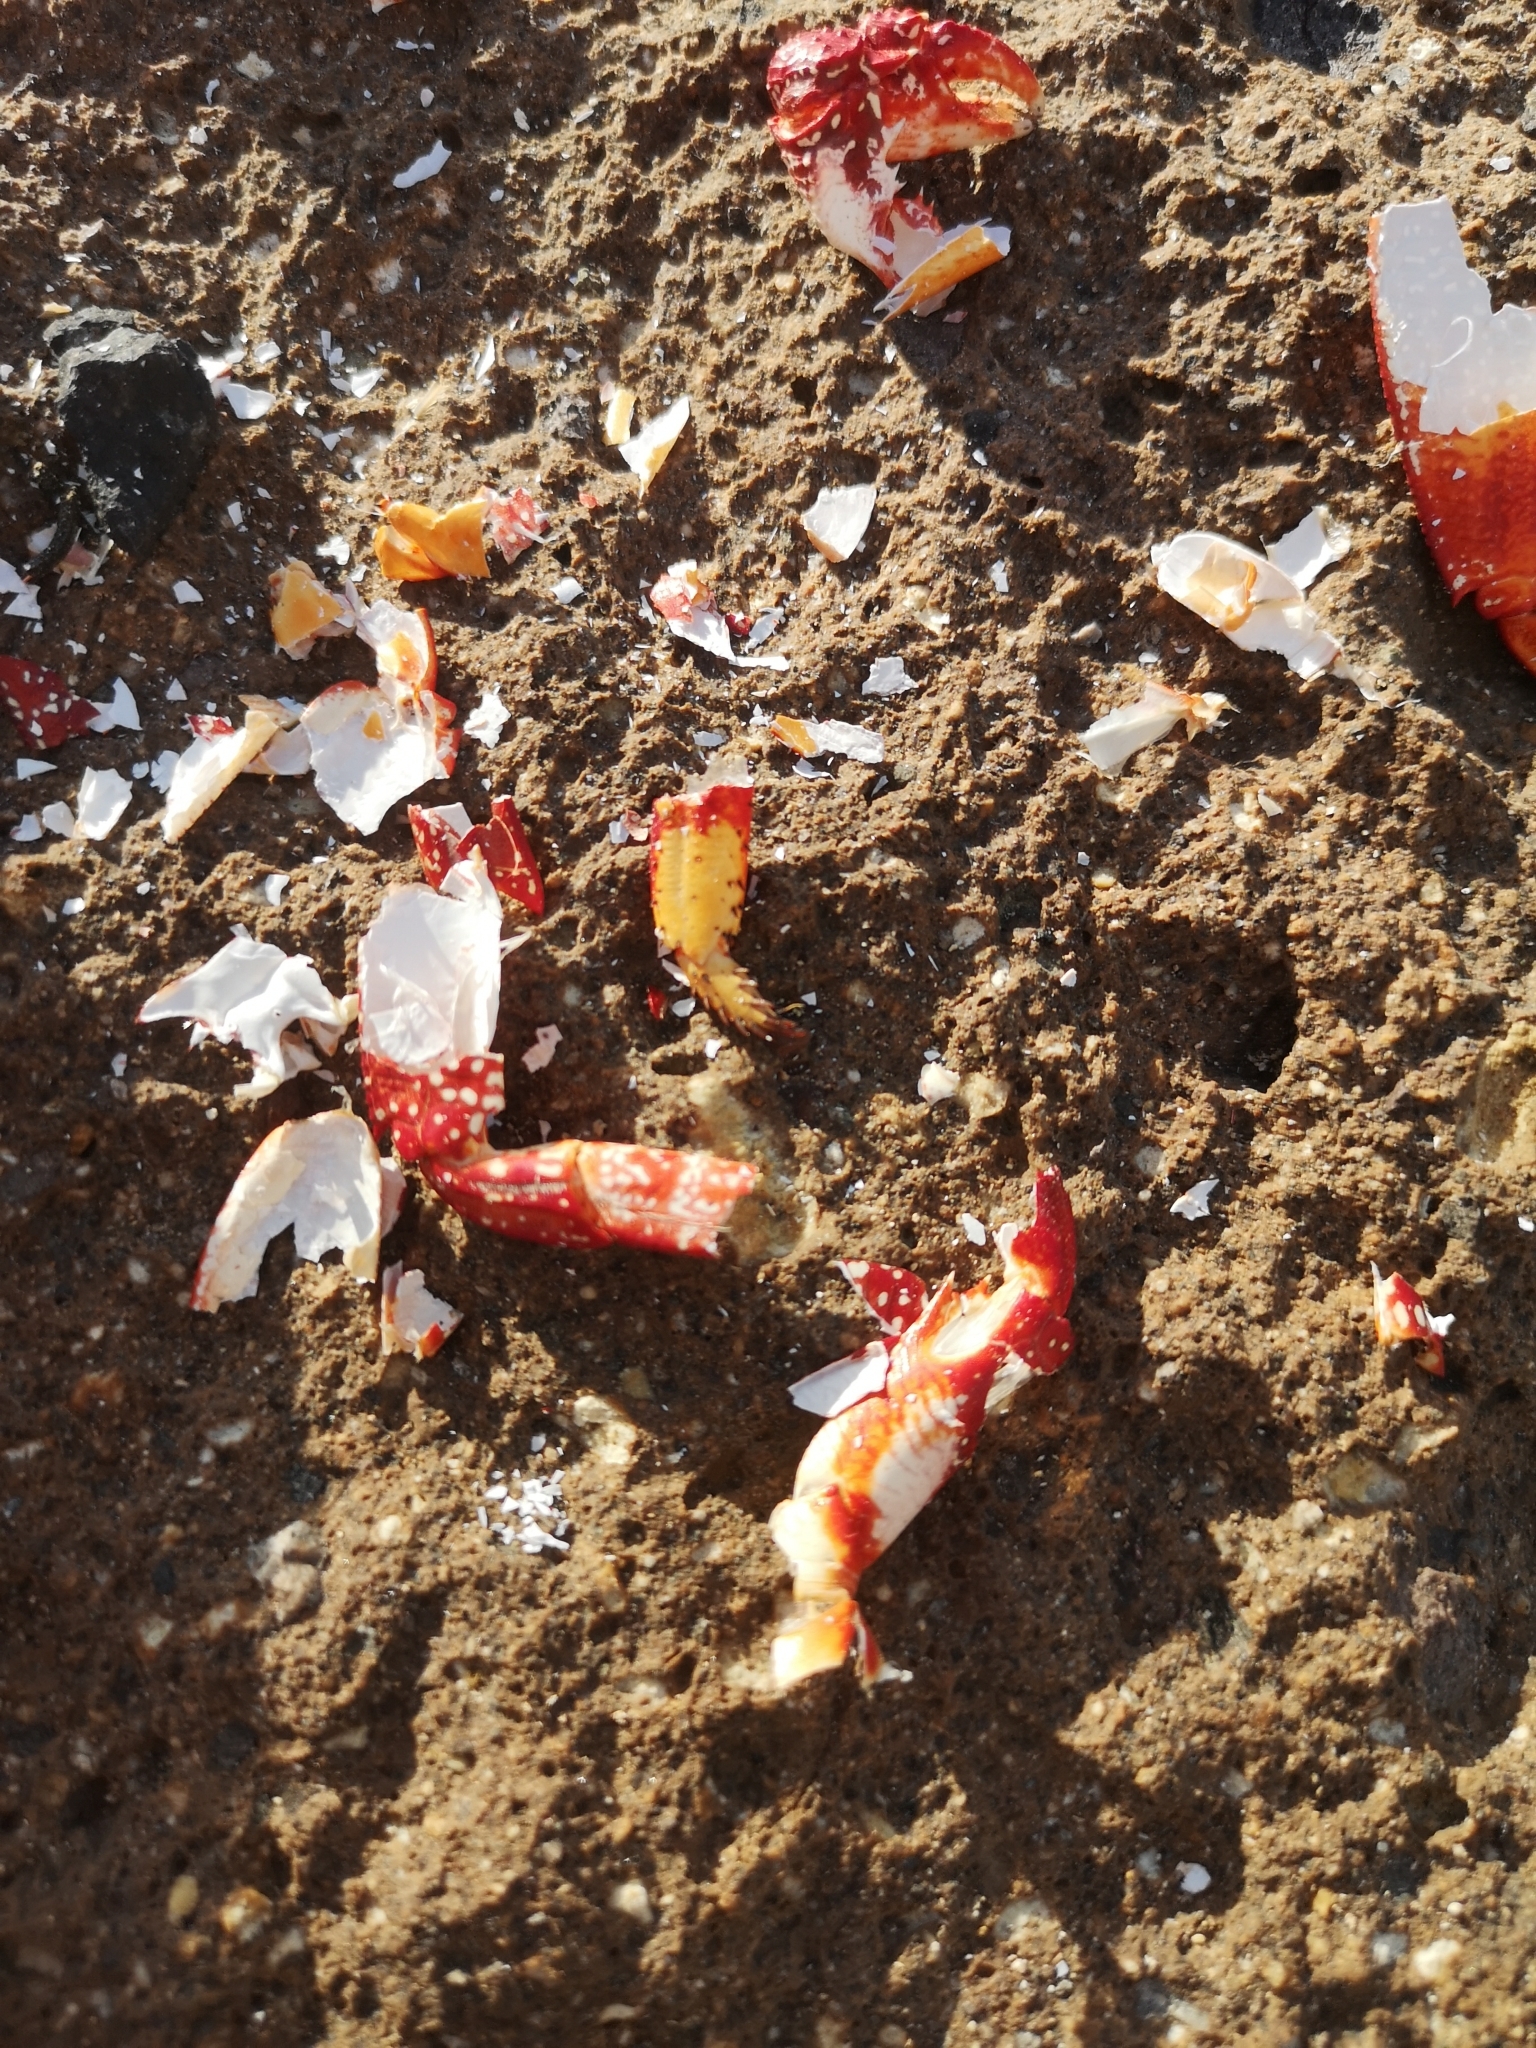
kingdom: Animalia
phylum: Arthropoda
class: Malacostraca
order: Decapoda
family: Grapsidae
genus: Grapsus
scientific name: Grapsus adscensionis
